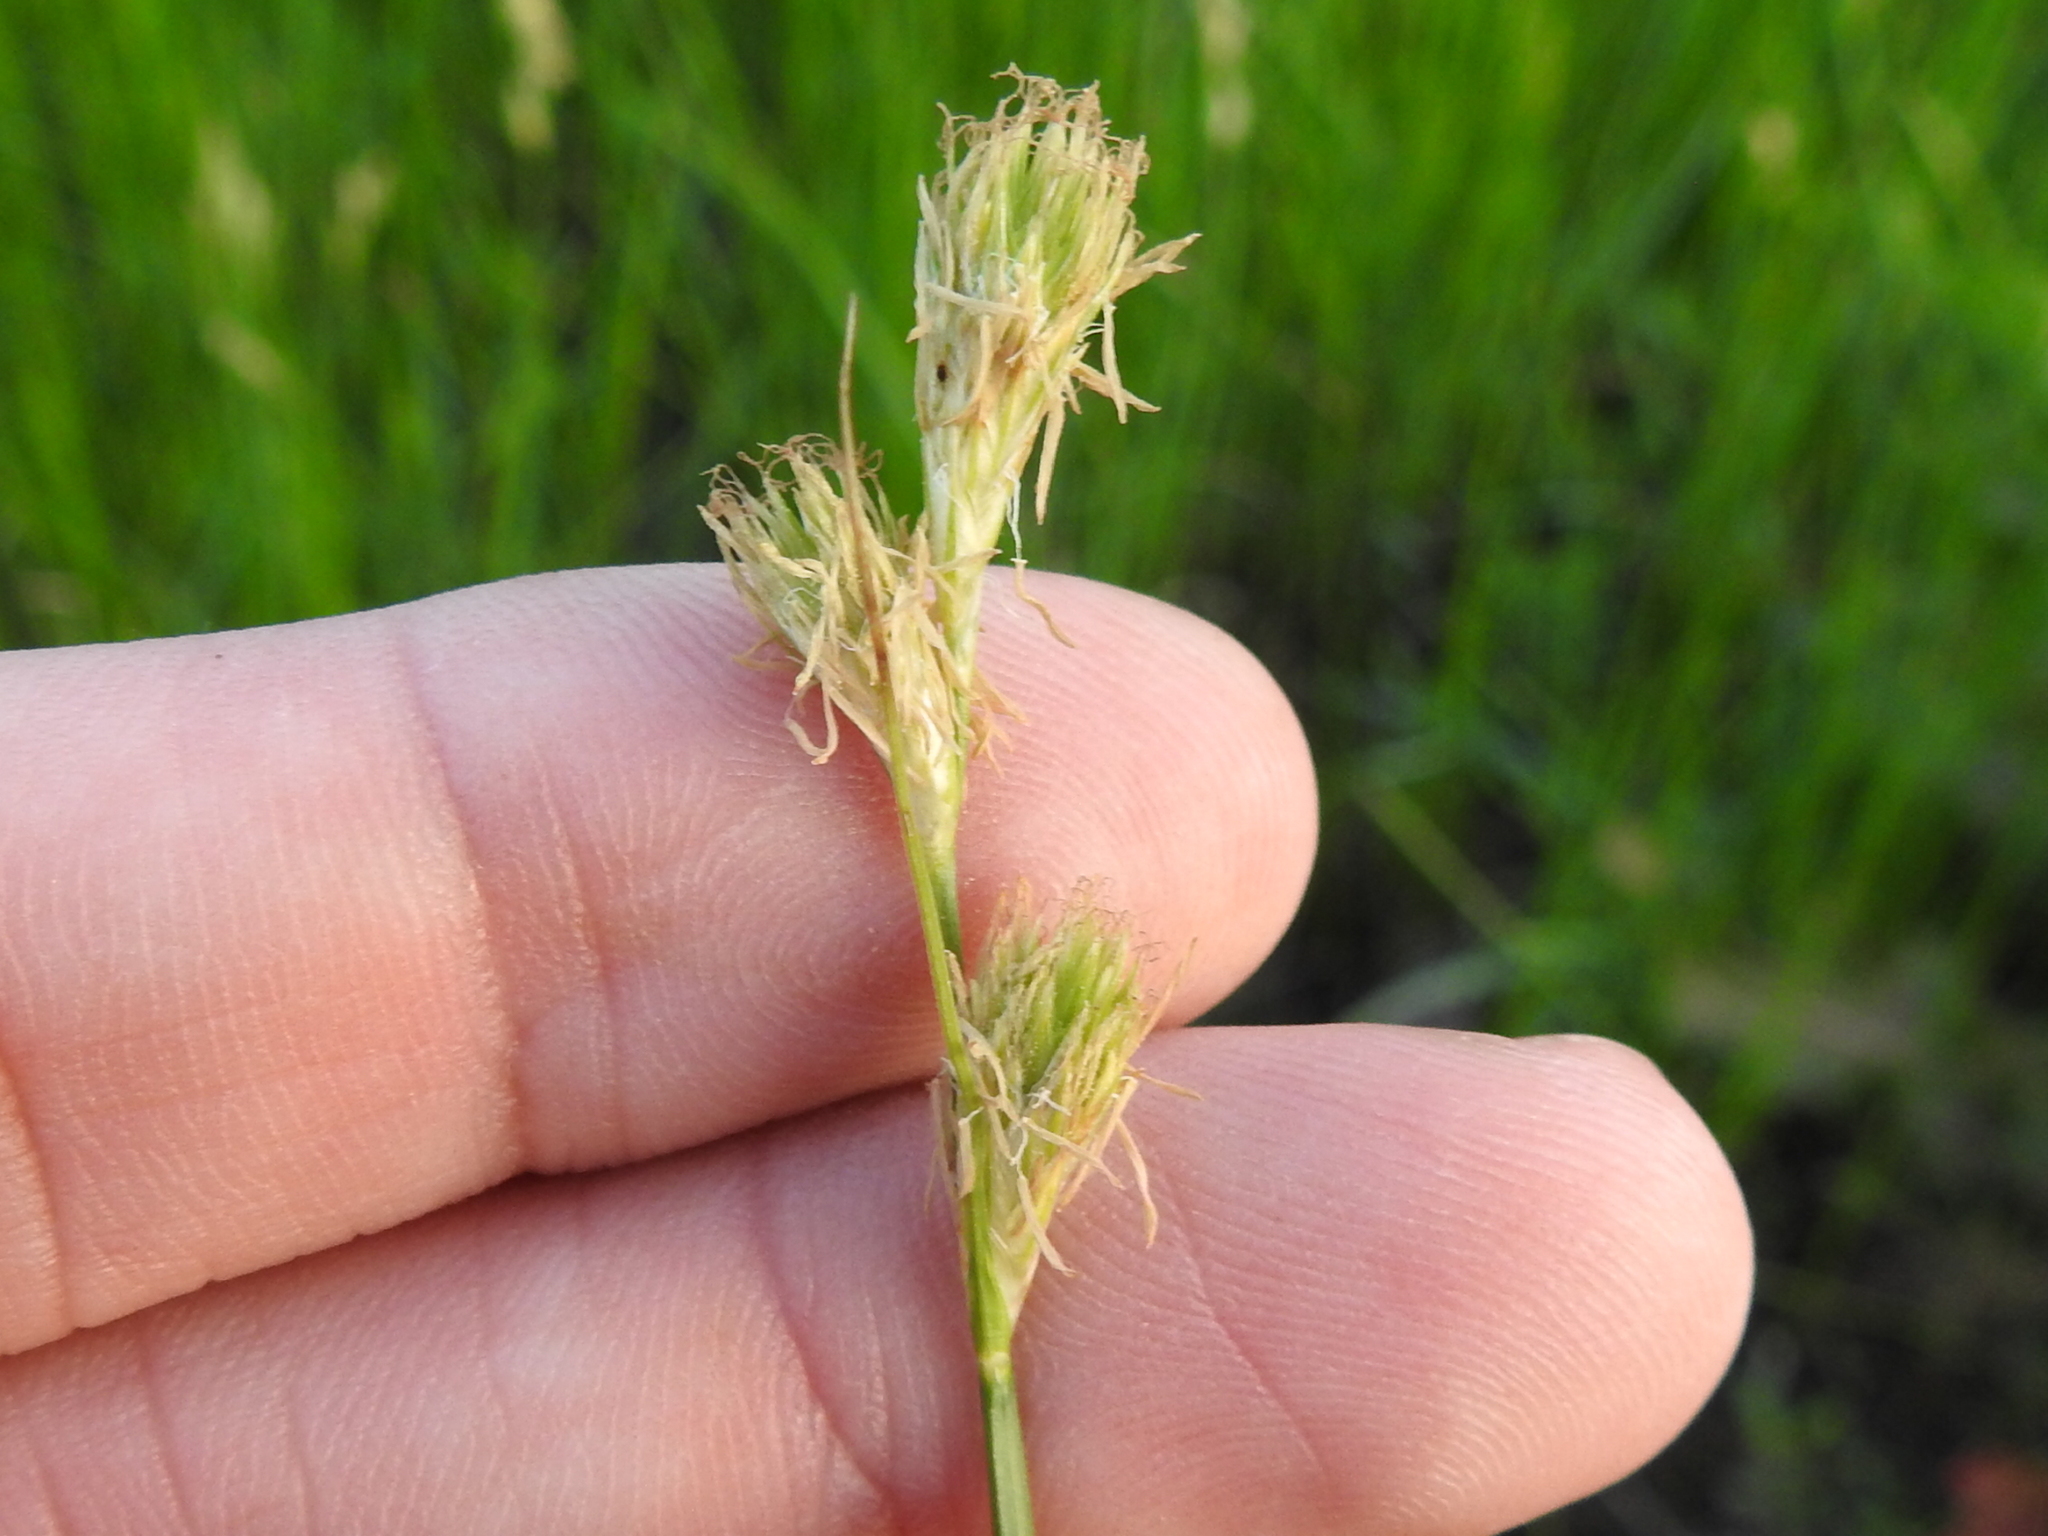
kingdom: Plantae
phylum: Tracheophyta
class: Liliopsida
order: Poales
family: Cyperaceae
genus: Carex
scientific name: Carex tetrastachya
